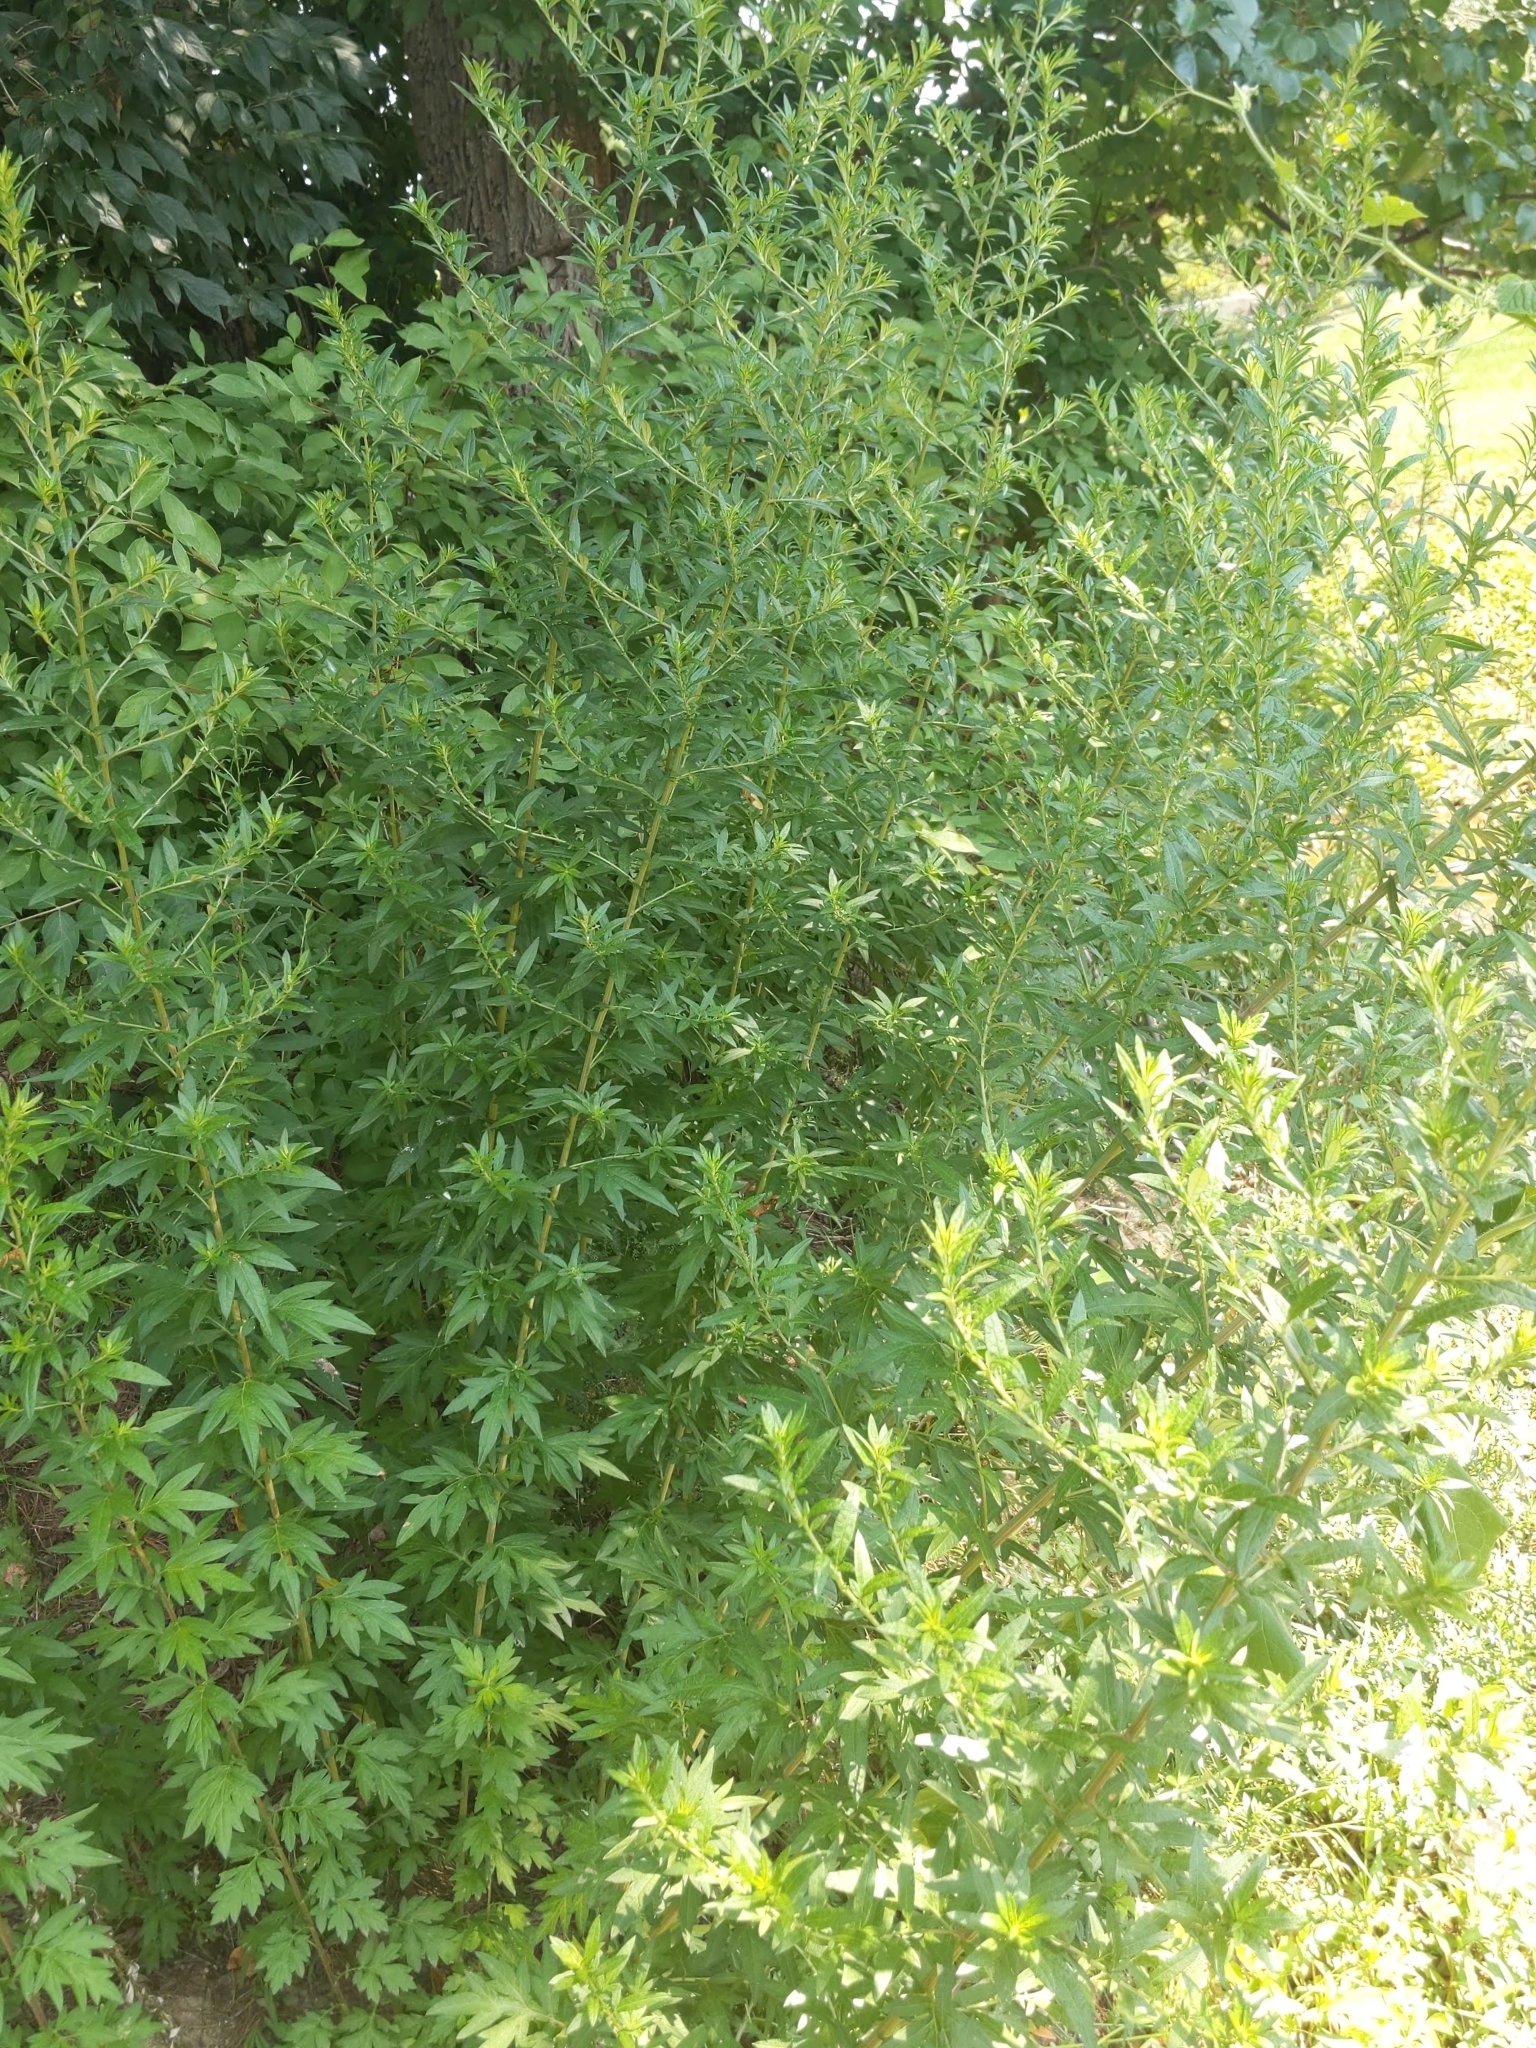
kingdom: Plantae
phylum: Tracheophyta
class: Magnoliopsida
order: Asterales
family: Asteraceae
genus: Artemisia
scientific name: Artemisia vulgaris
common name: Mugwort
